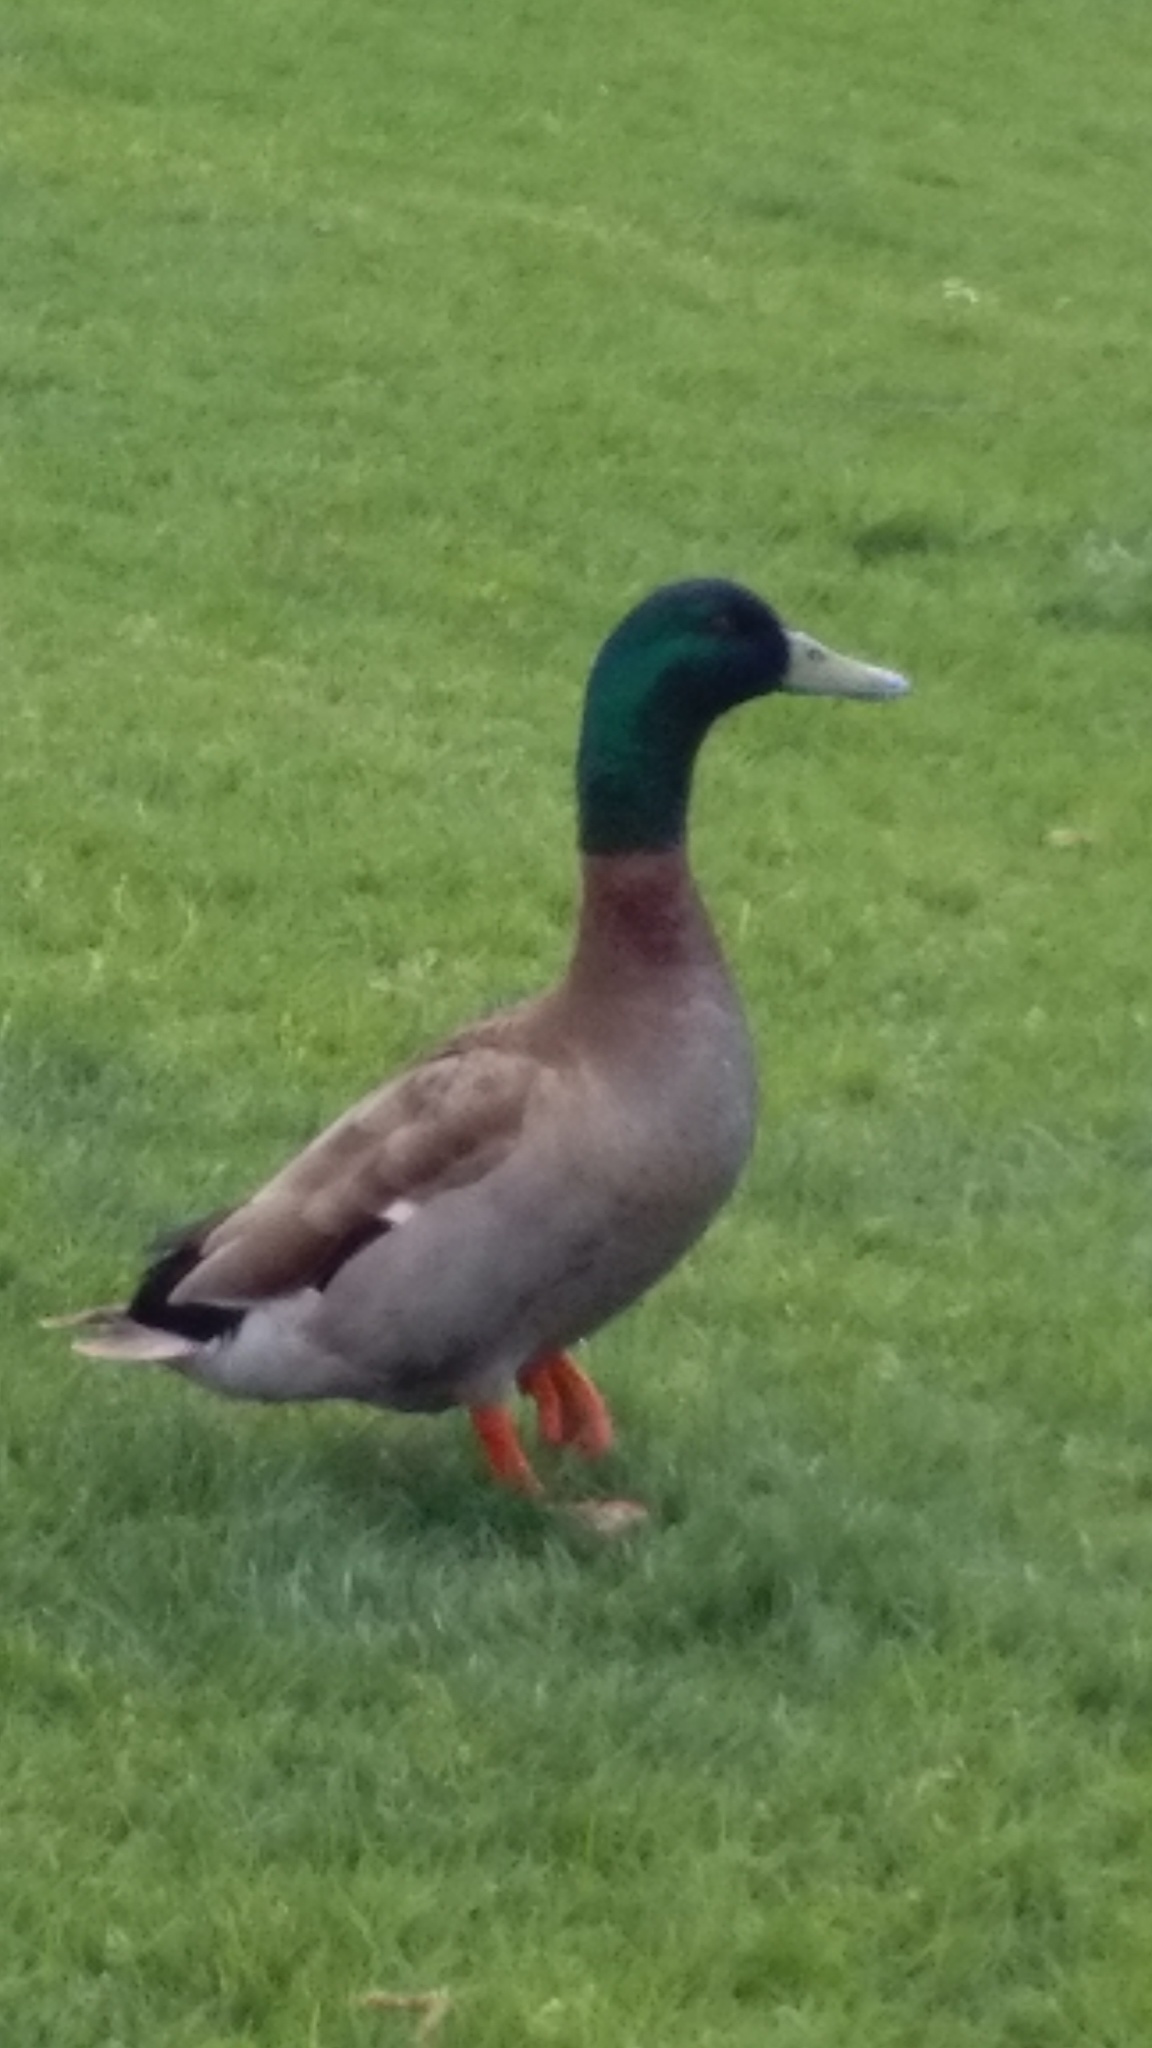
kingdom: Animalia
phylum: Chordata
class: Aves
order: Anseriformes
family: Anatidae
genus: Anas
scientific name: Anas platyrhynchos
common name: Mallard
